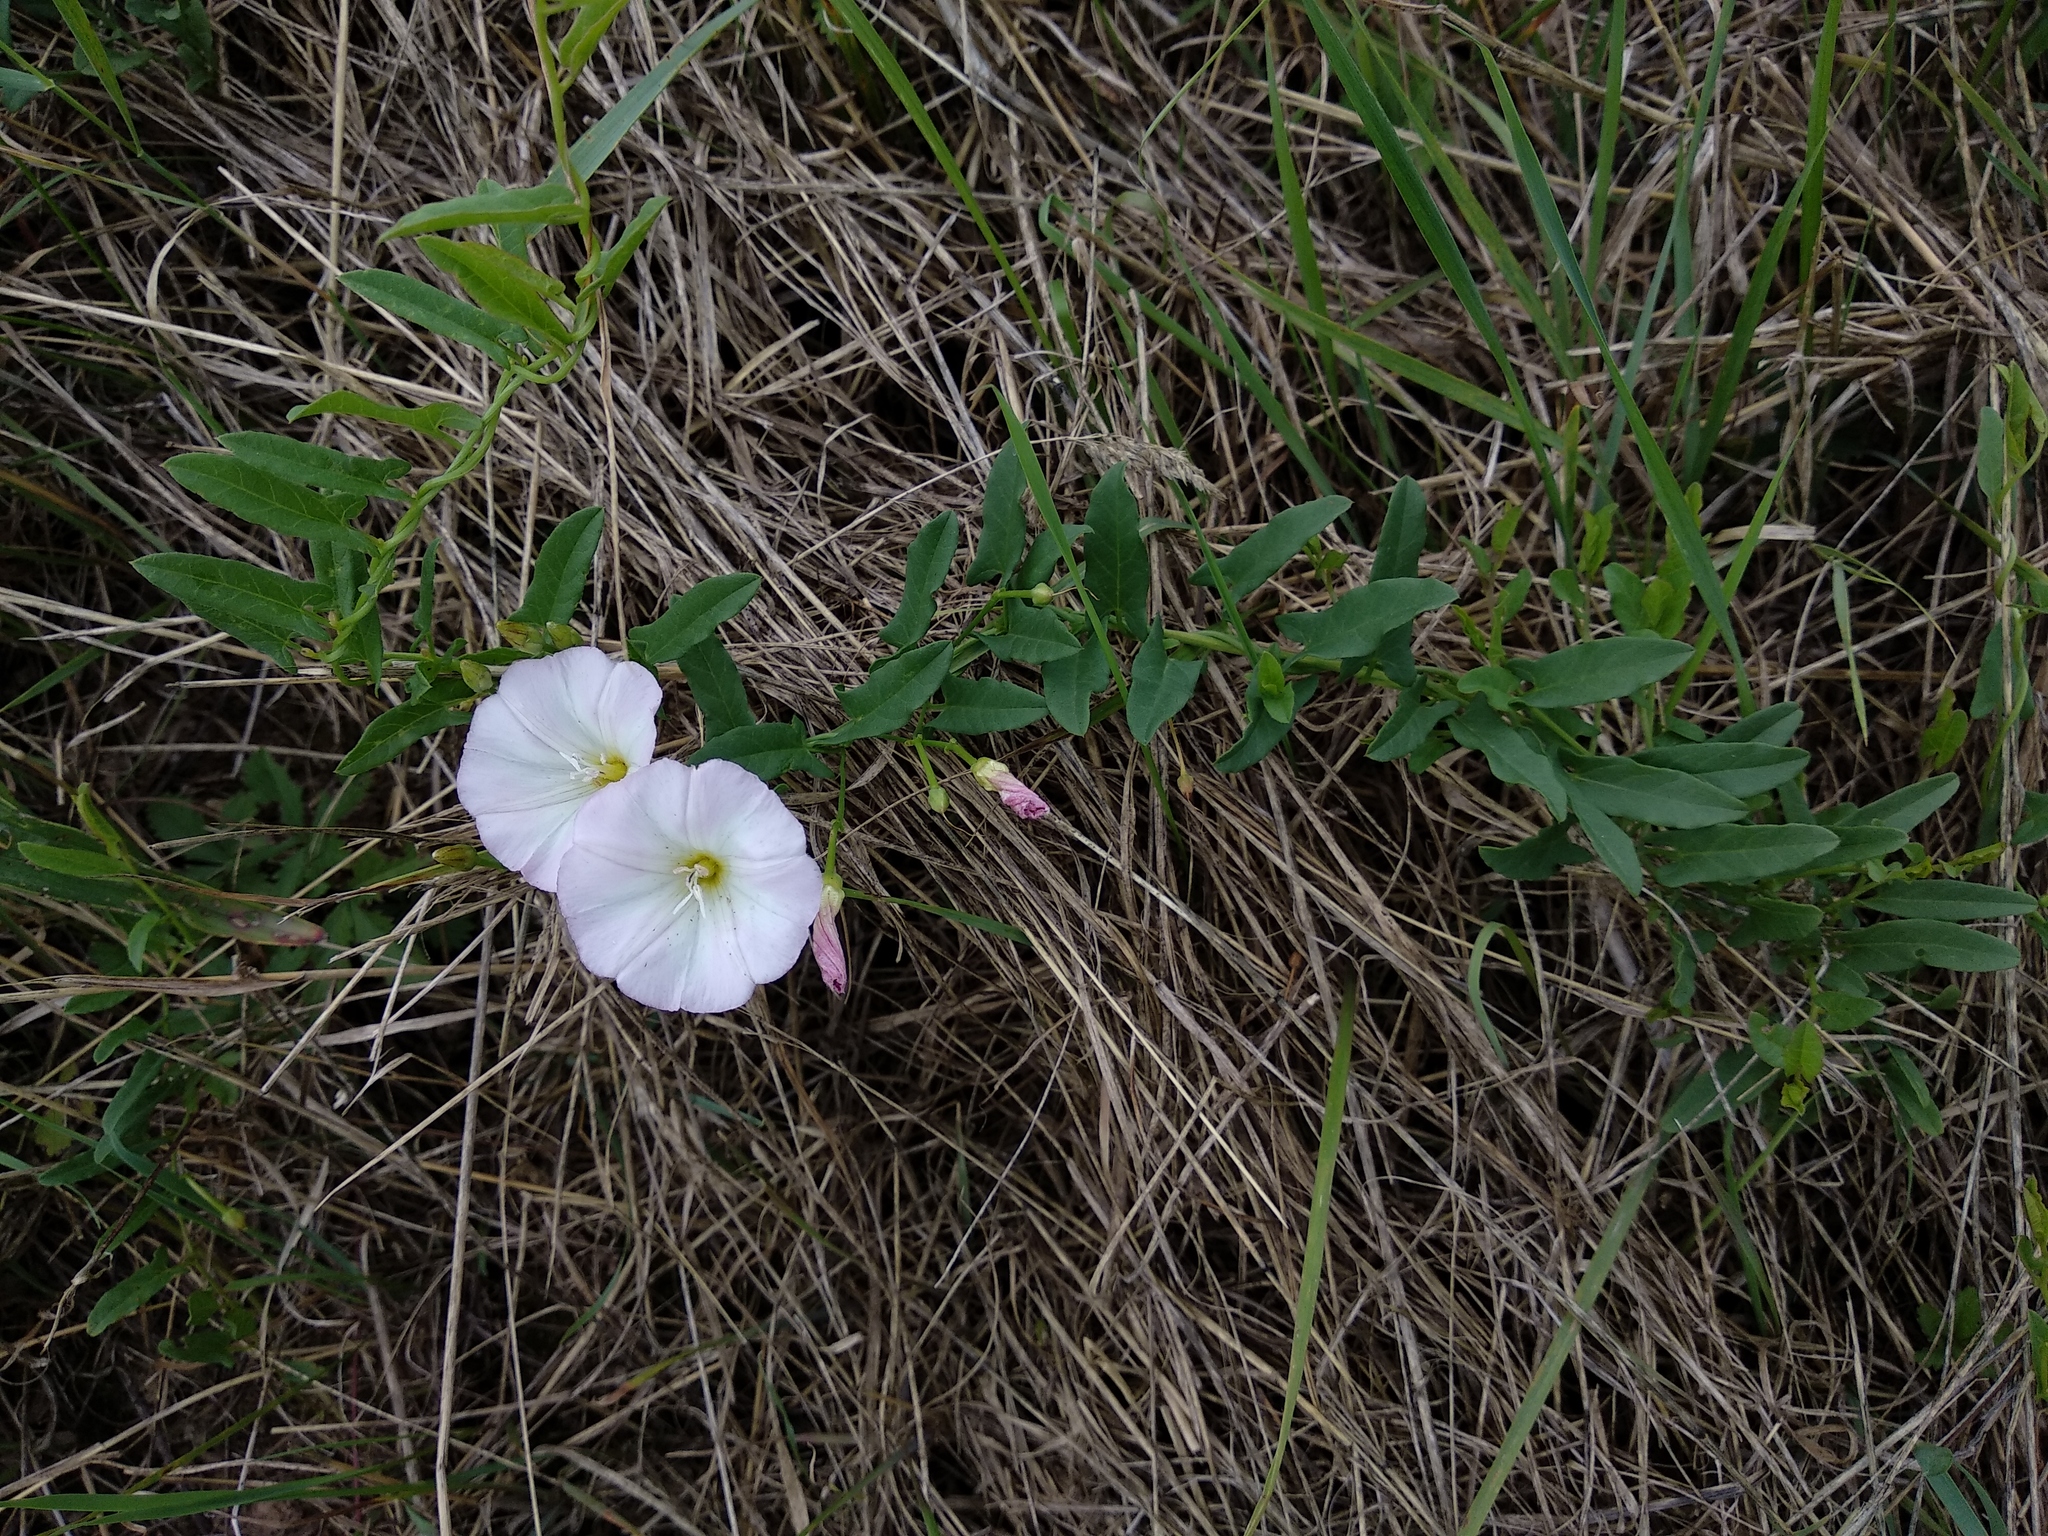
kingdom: Plantae
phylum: Tracheophyta
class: Magnoliopsida
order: Solanales
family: Convolvulaceae
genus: Convolvulus
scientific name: Convolvulus arvensis
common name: Field bindweed
